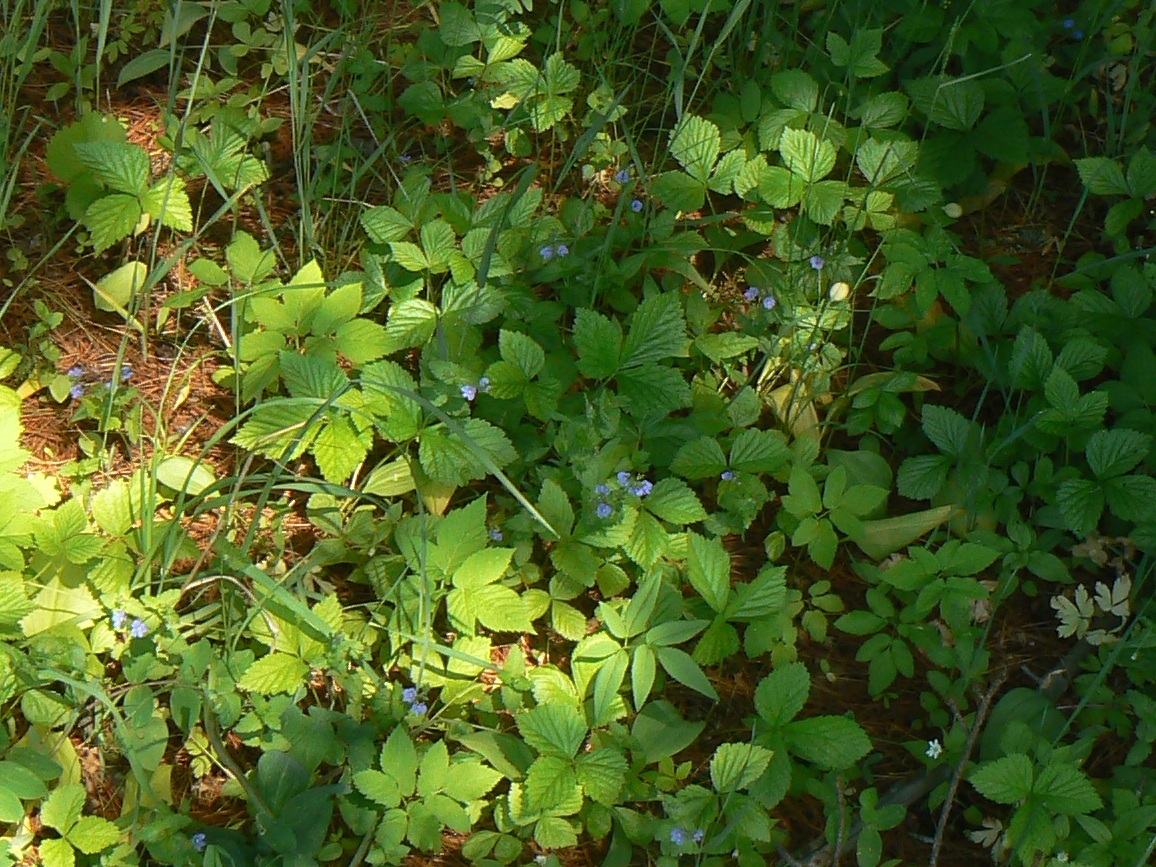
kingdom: Plantae
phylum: Tracheophyta
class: Magnoliopsida
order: Lamiales
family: Plantaginaceae
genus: Veronica
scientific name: Veronica chamaedrys
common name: Germander speedwell
